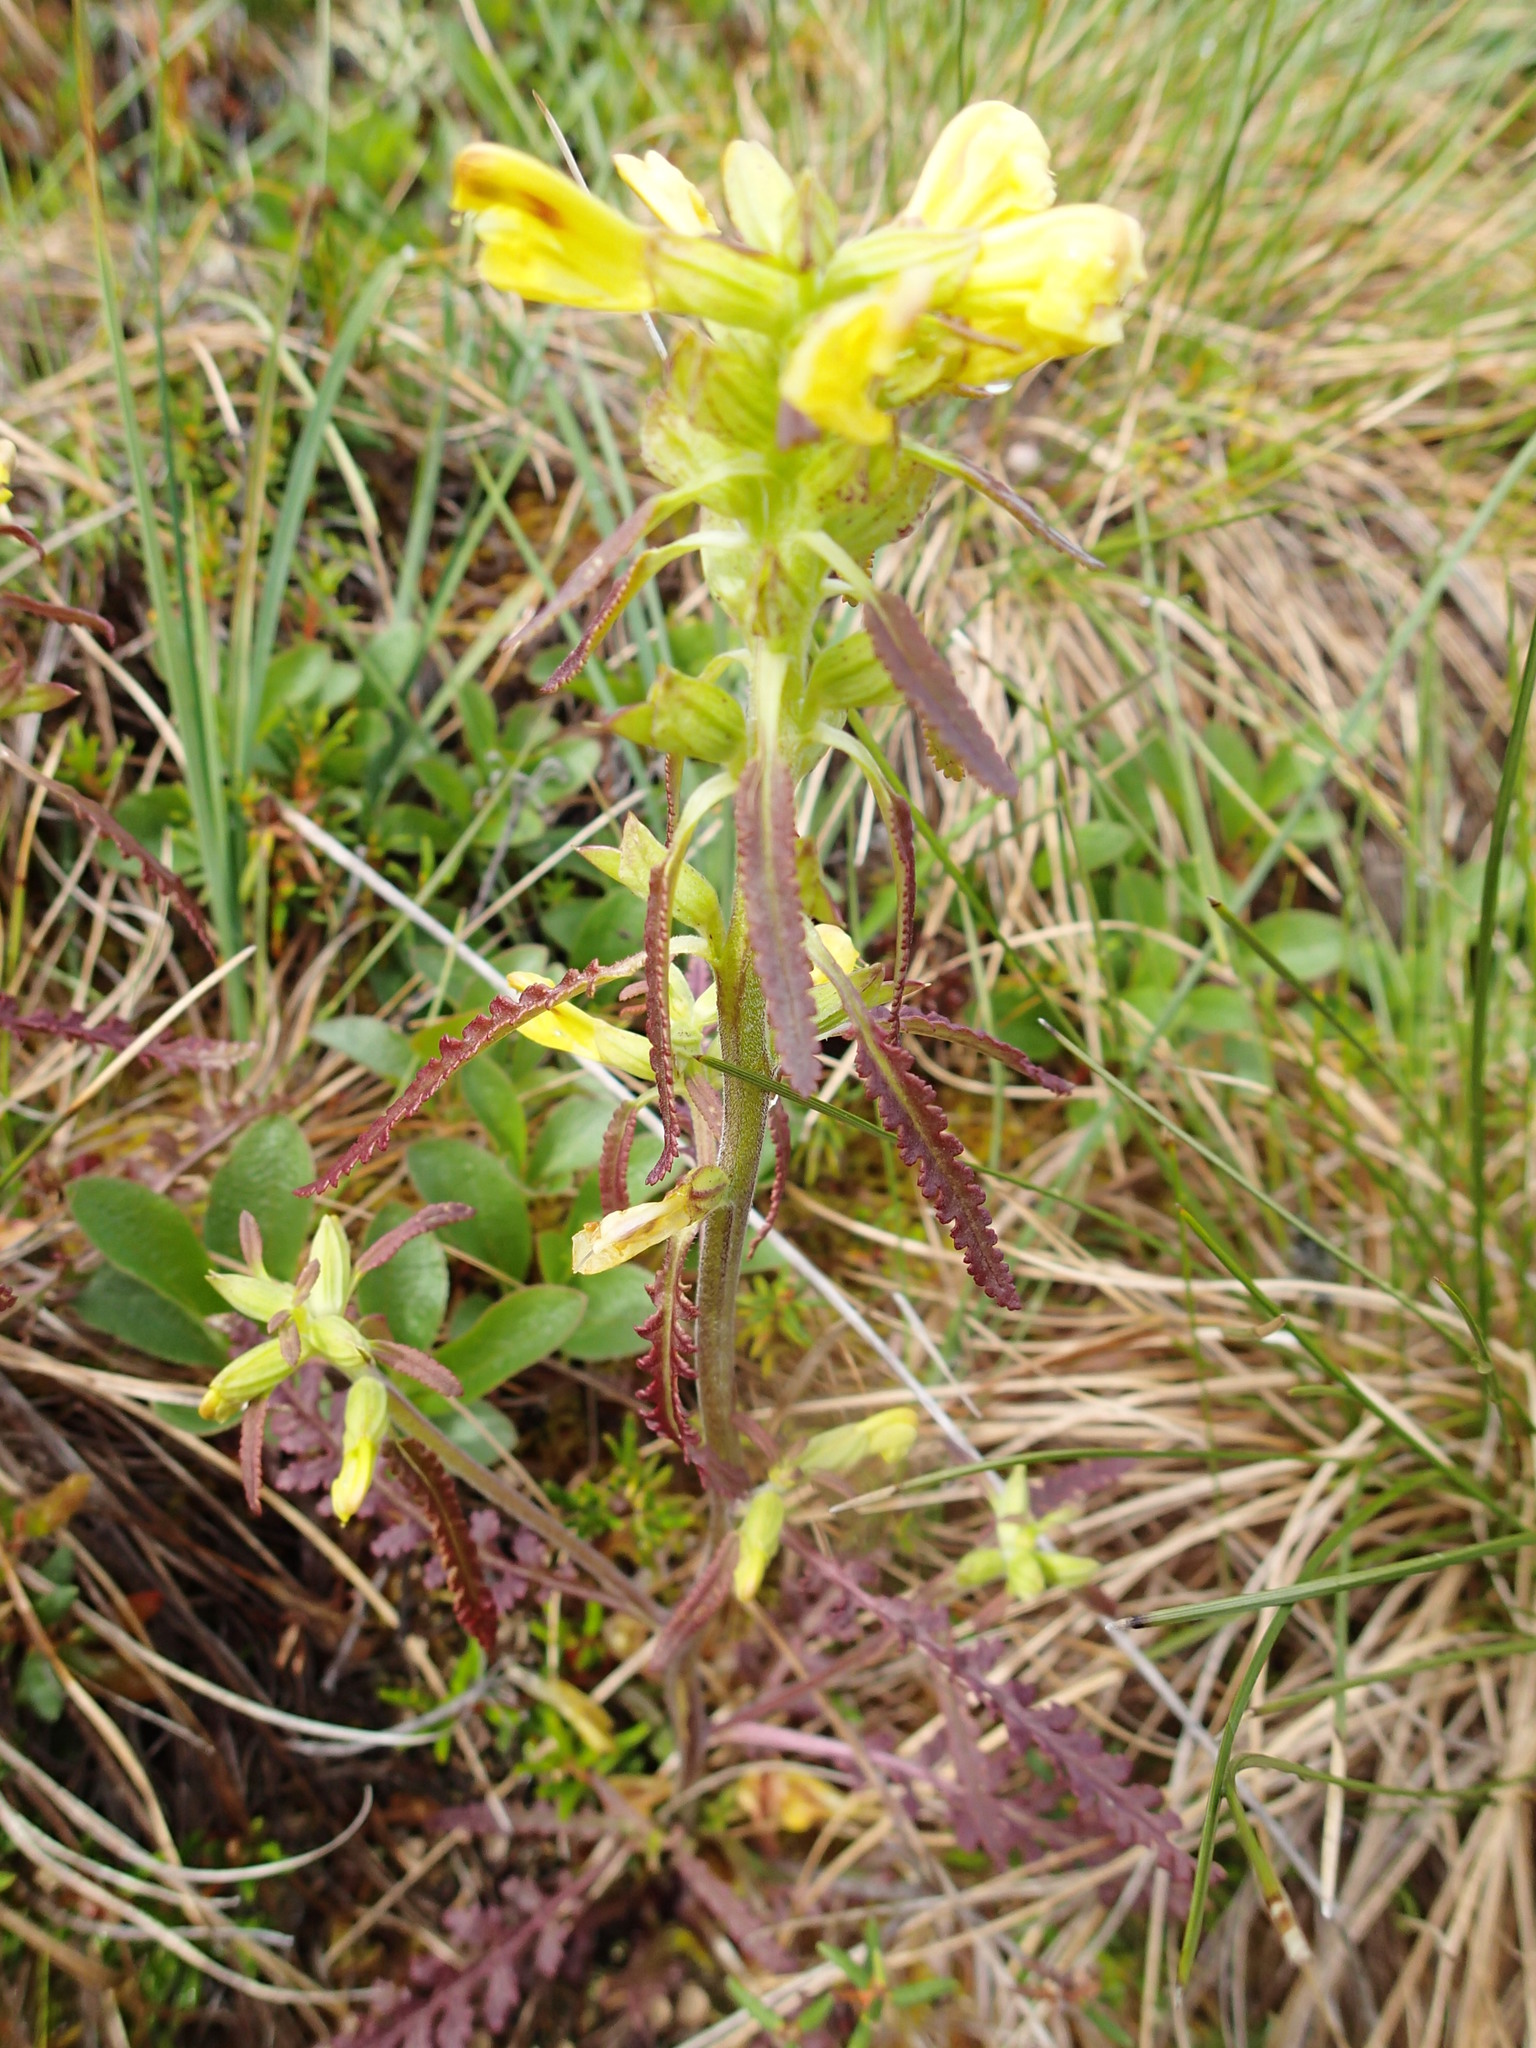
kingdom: Plantae
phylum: Tracheophyta
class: Magnoliopsida
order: Lamiales
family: Orobanchaceae
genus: Pedicularis
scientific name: Pedicularis labradorica
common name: Labrador lousewort
